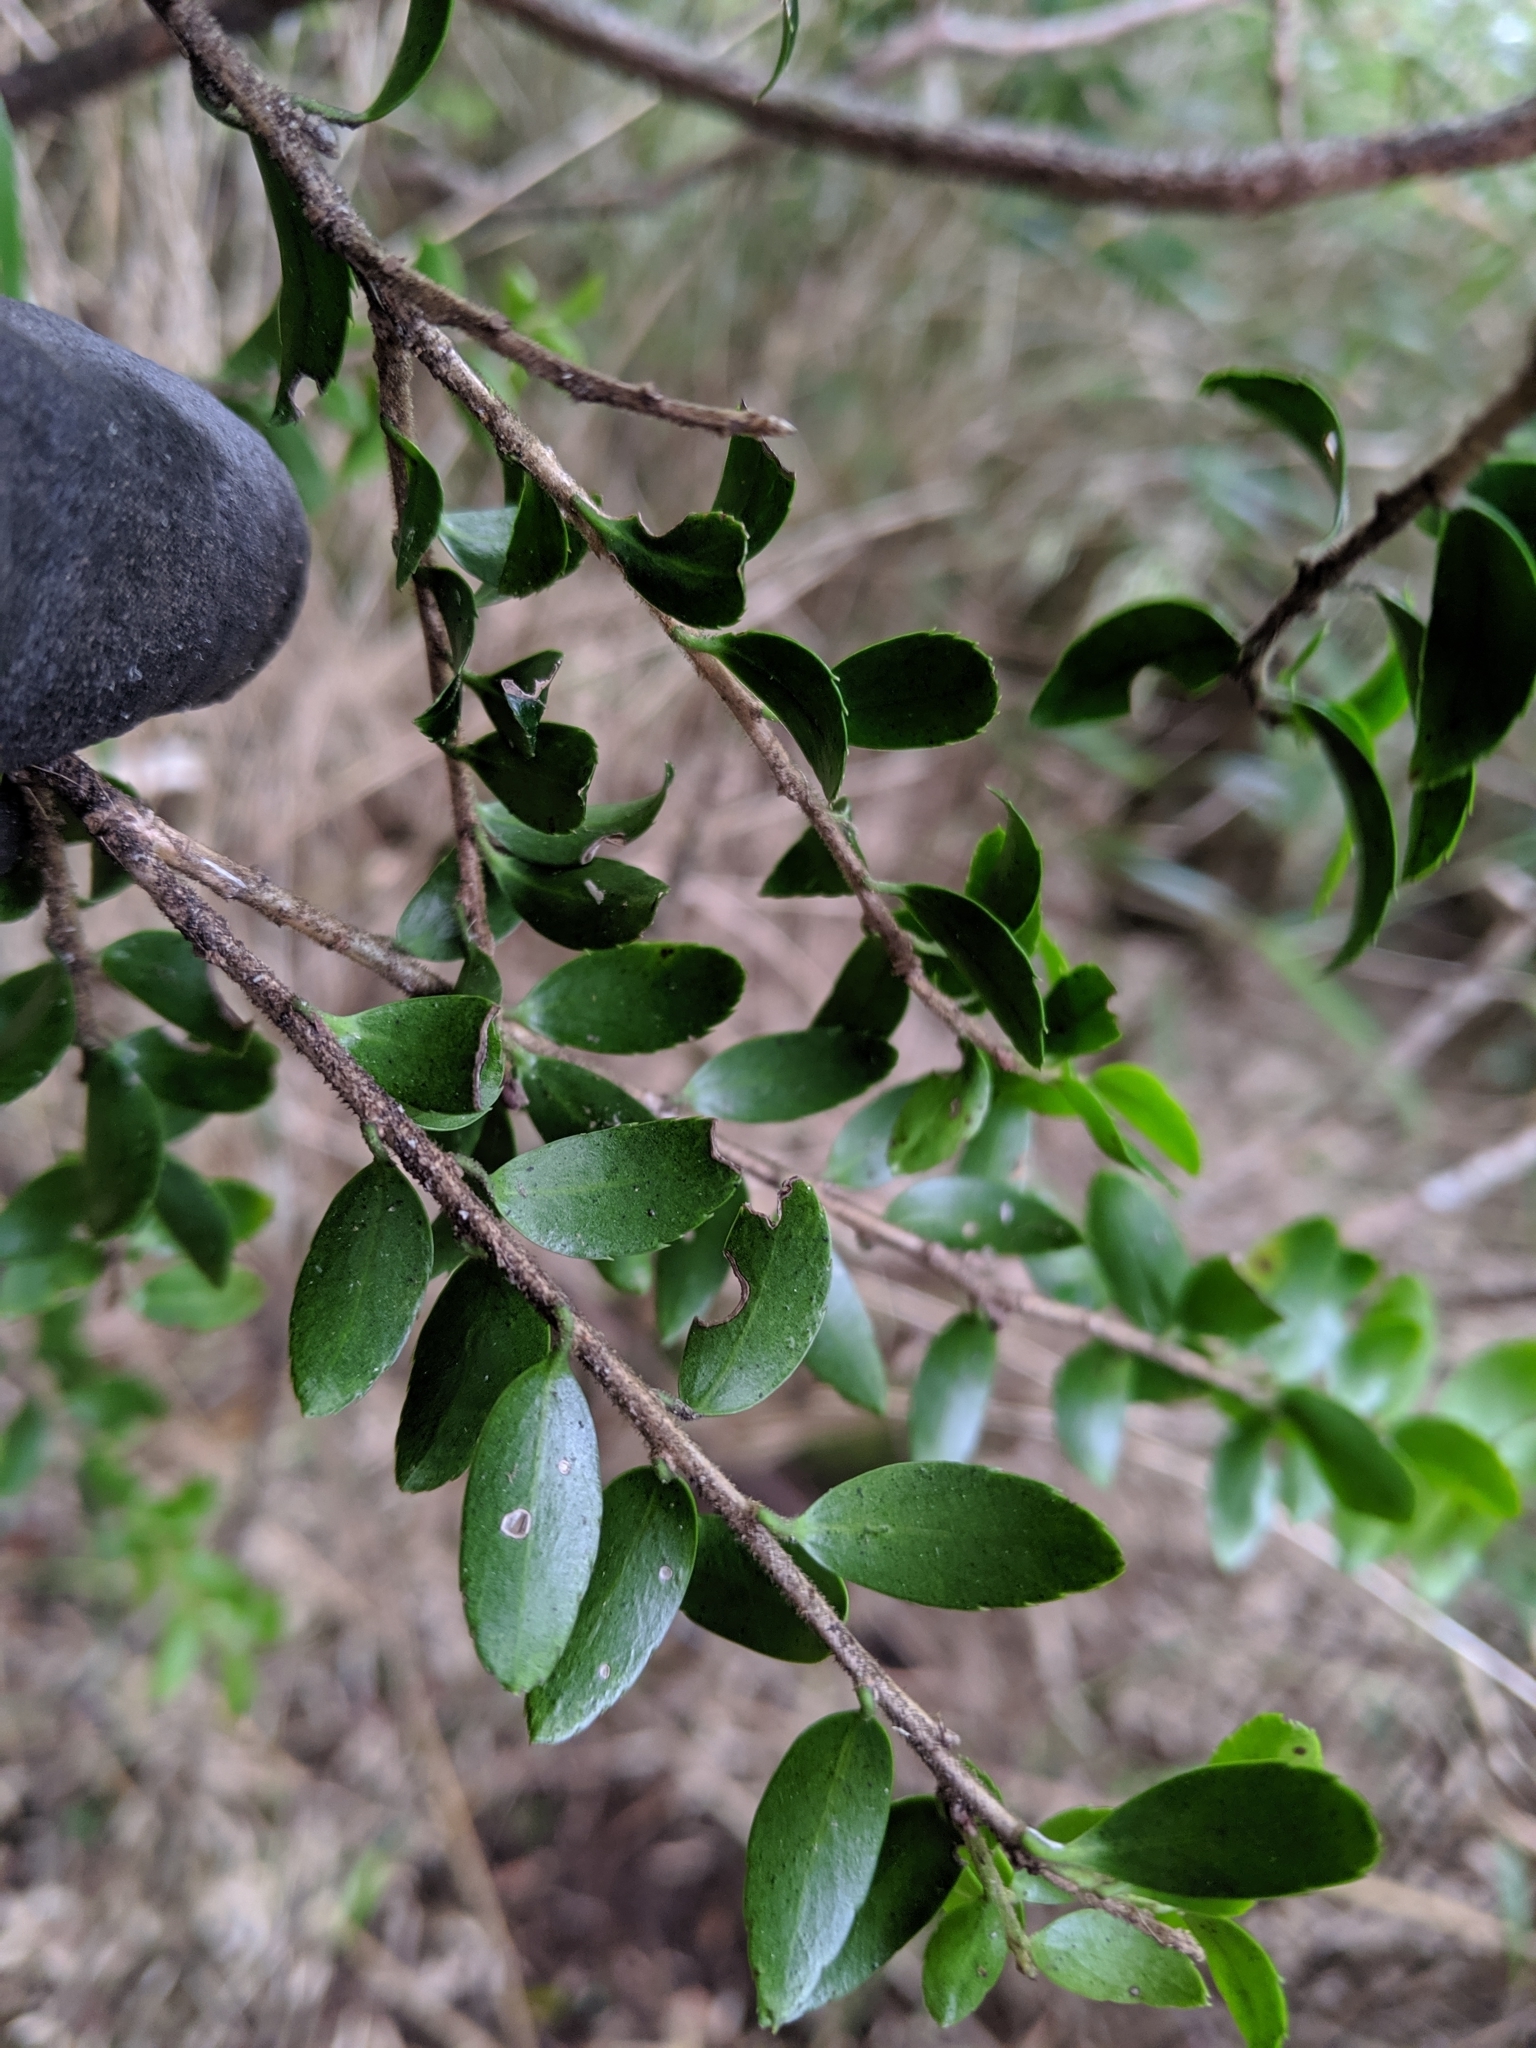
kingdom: Plantae
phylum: Tracheophyta
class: Magnoliopsida
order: Aquifoliales
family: Aquifoliaceae
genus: Ilex
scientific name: Ilex yunnanensis
